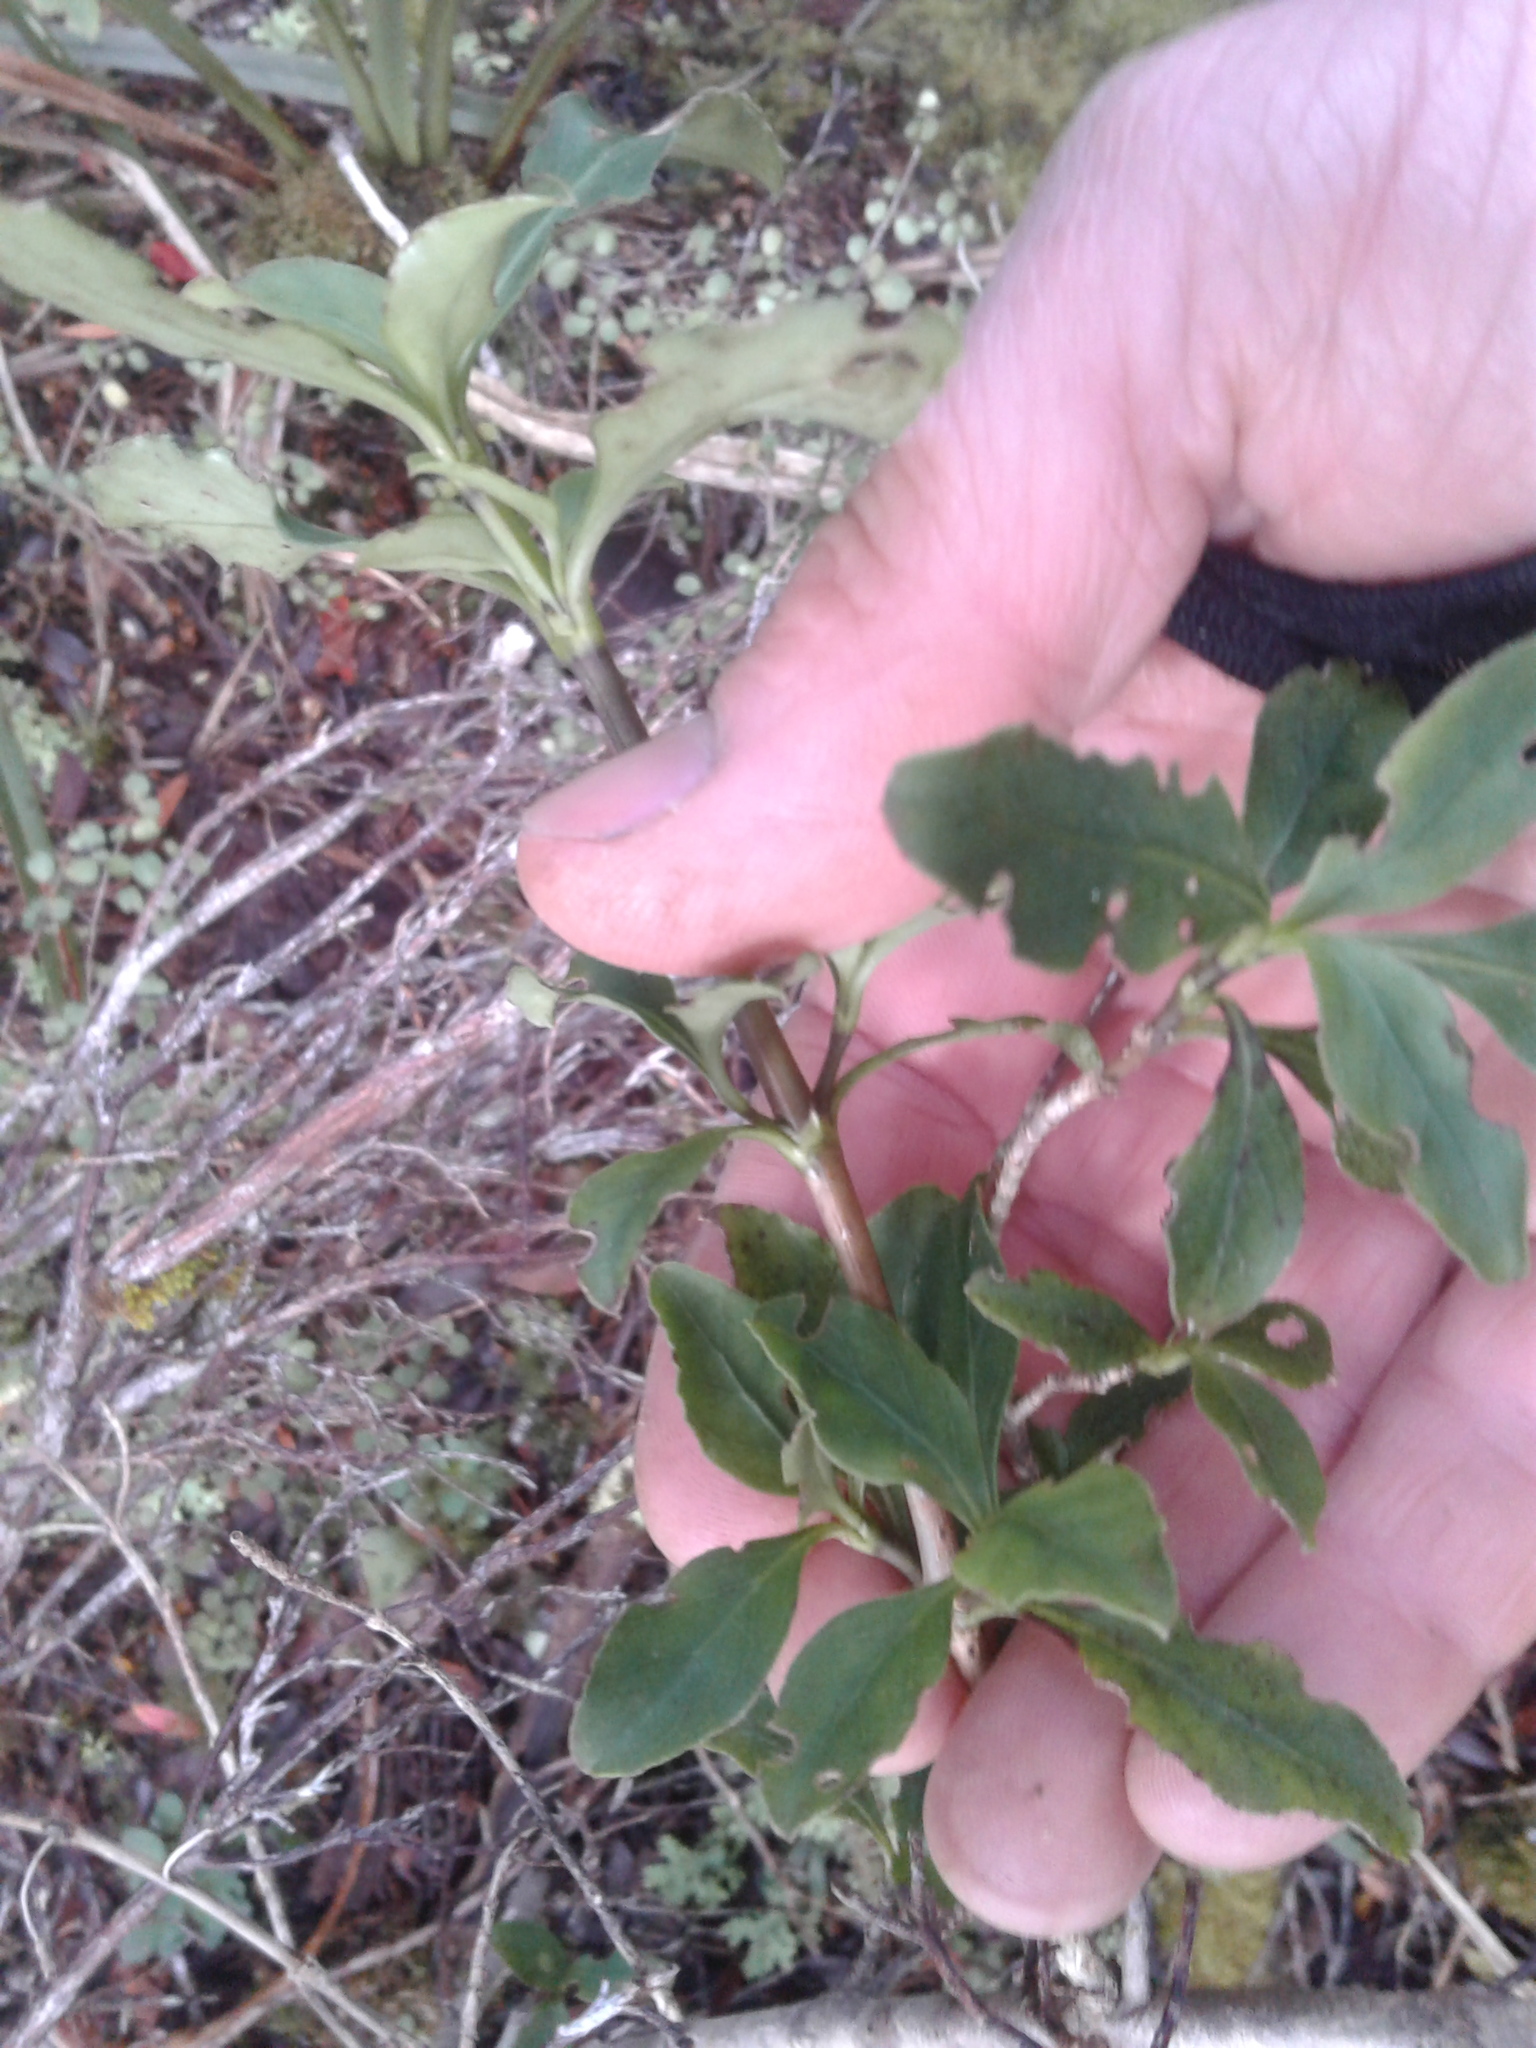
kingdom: Plantae
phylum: Tracheophyta
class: Magnoliopsida
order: Gentianales
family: Rubiaceae
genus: Coprosma
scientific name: Coprosma foetidissima
